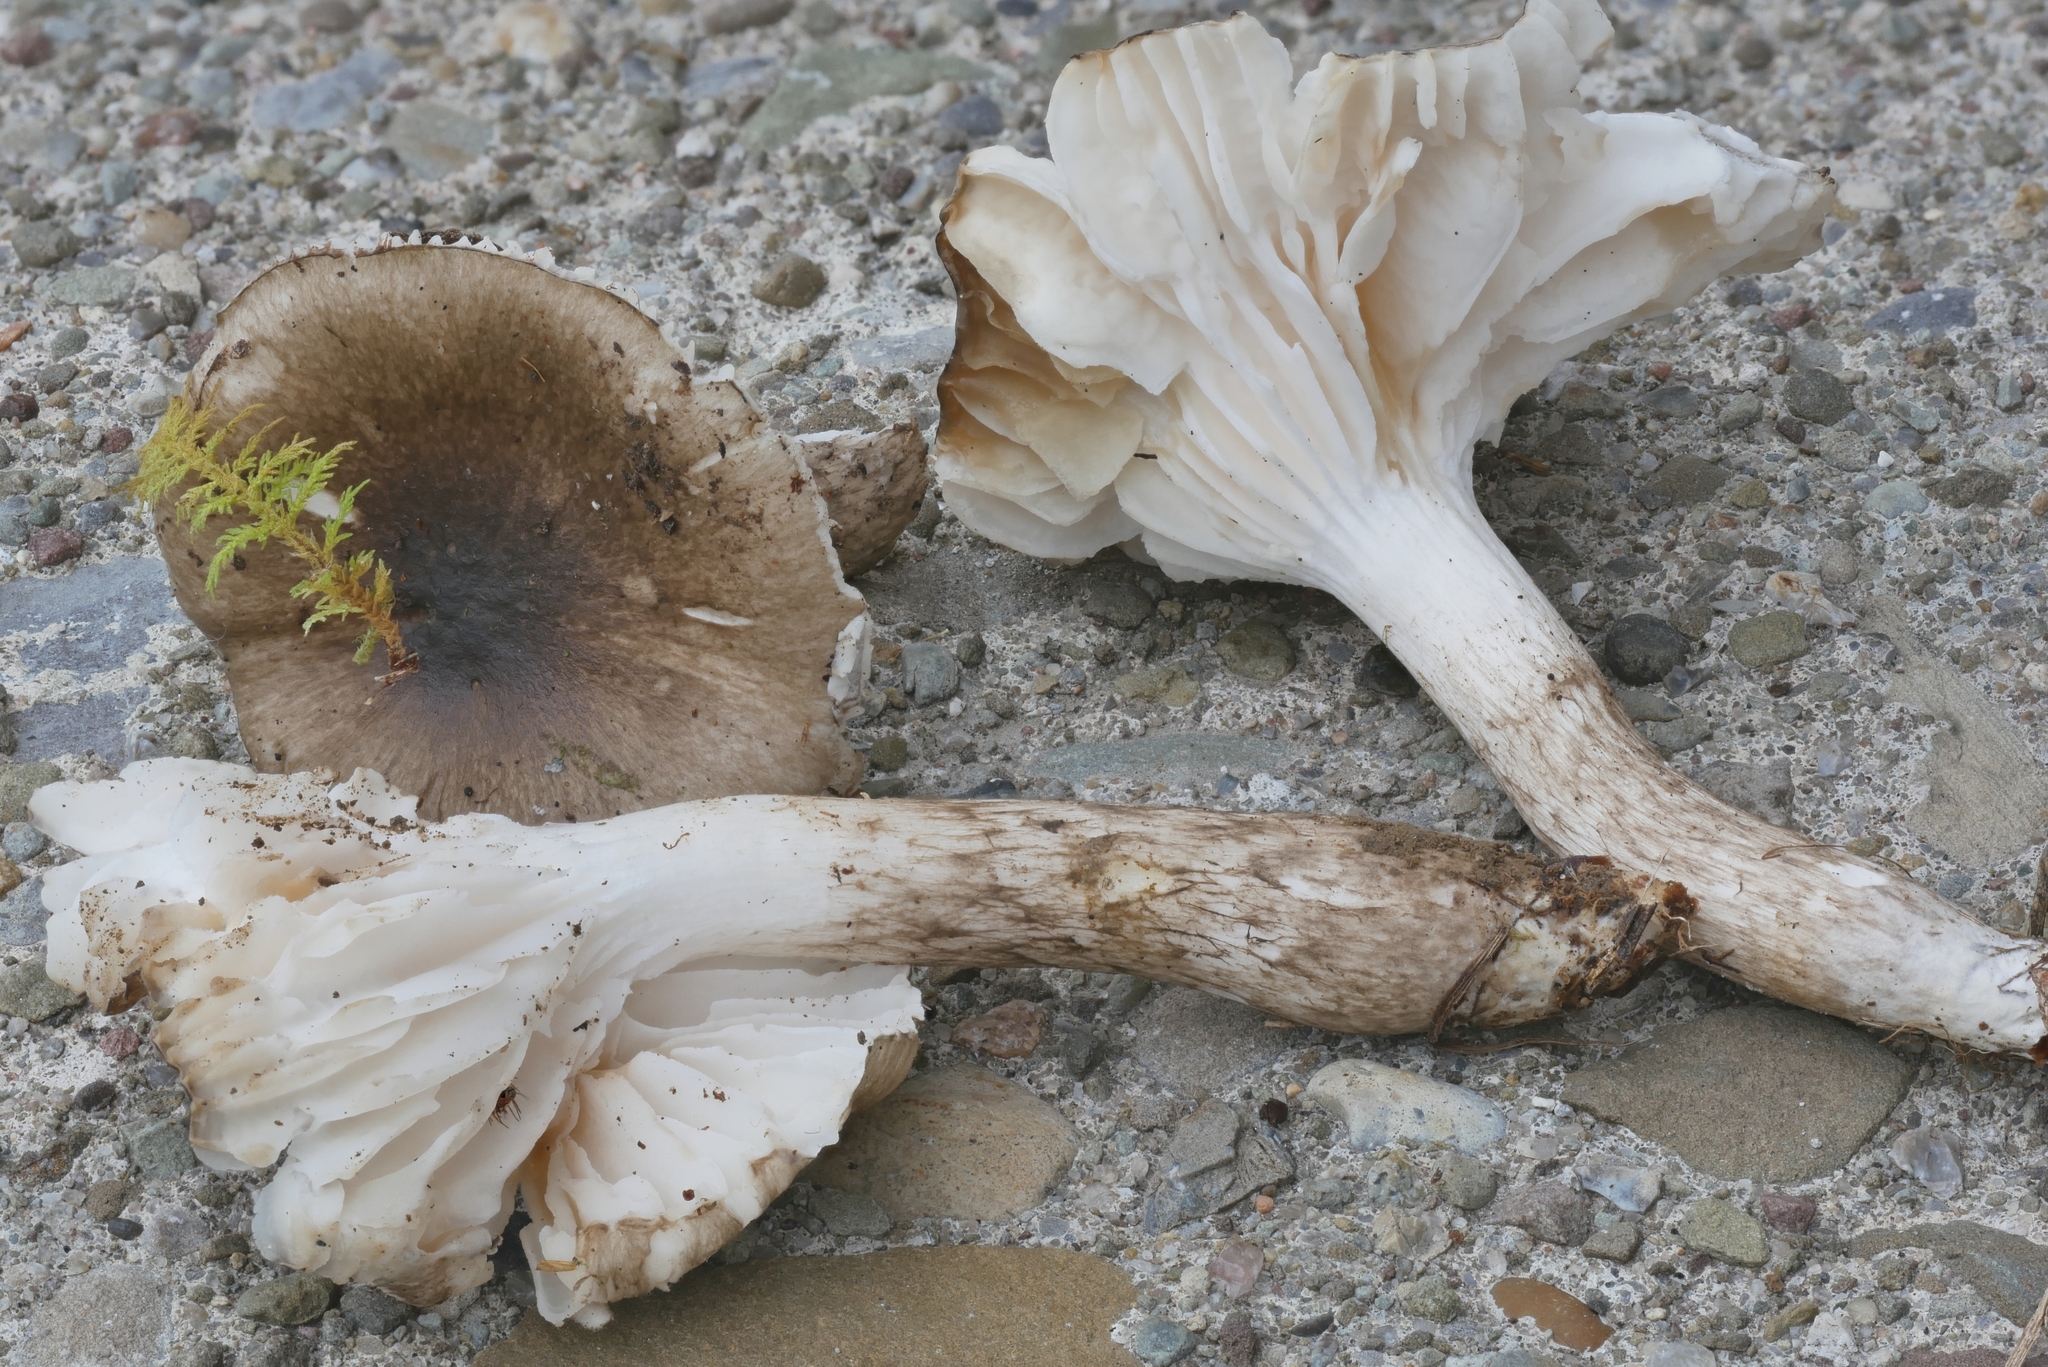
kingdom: Fungi
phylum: Basidiomycota
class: Agaricomycetes
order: Agaricales
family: Hygrophoraceae
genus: Hygrophorus
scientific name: Hygrophorus olivaceoalbus
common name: Olive wax cap
